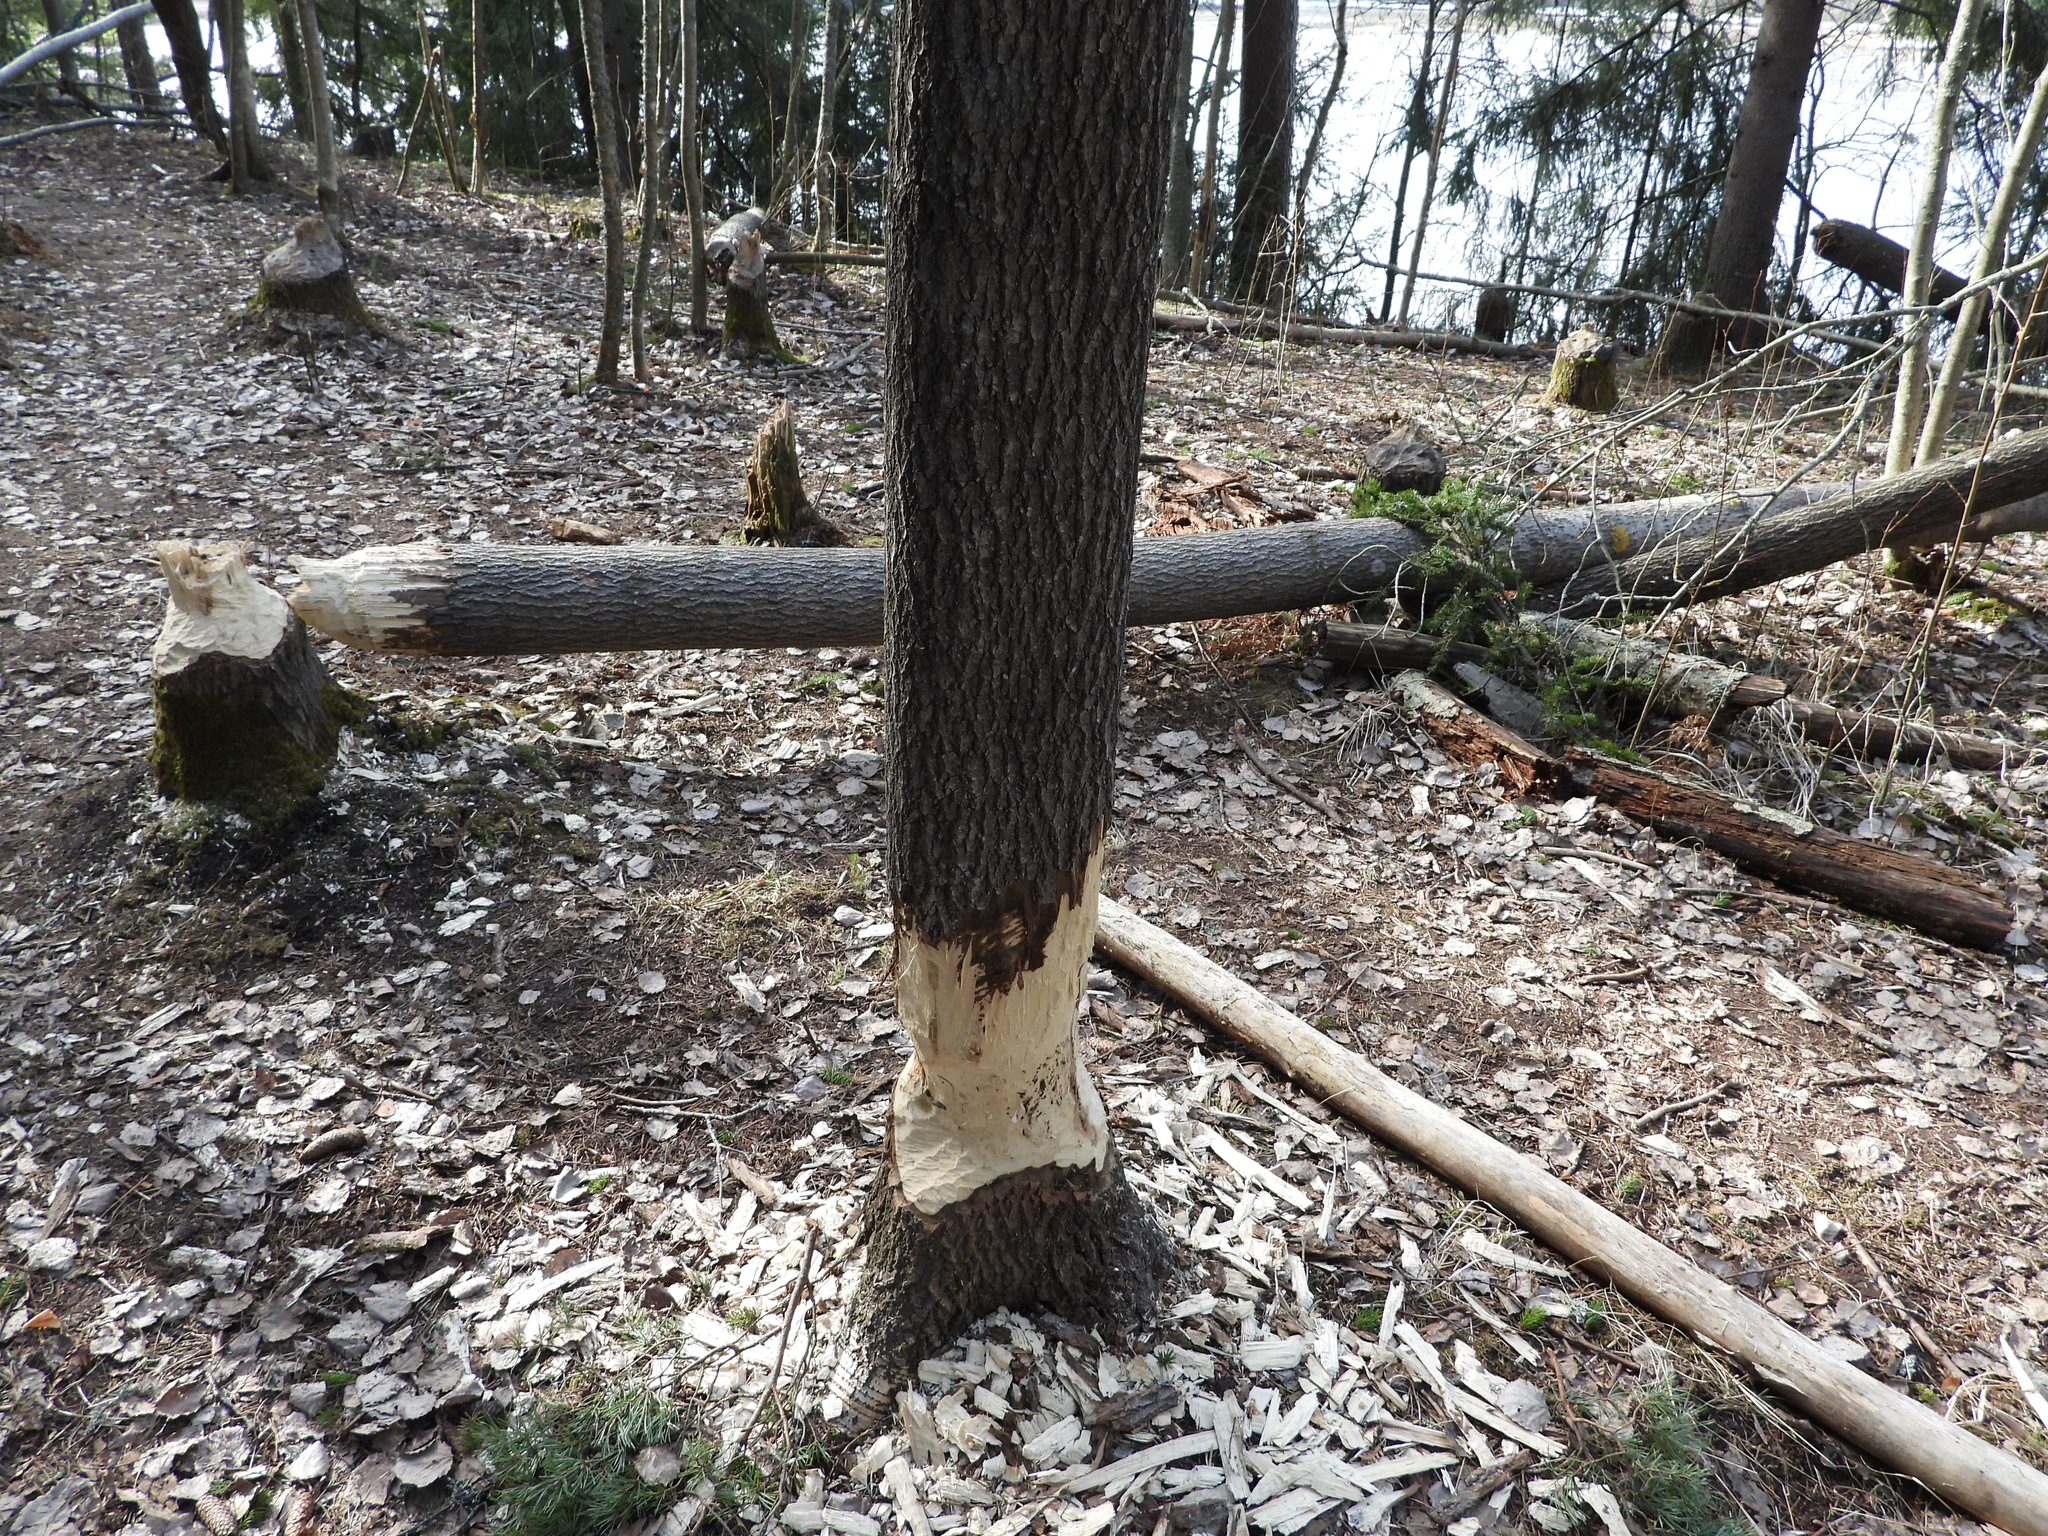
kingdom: Animalia
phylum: Chordata
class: Mammalia
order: Rodentia
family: Castoridae
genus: Castor
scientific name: Castor fiber
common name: Eurasian beaver
